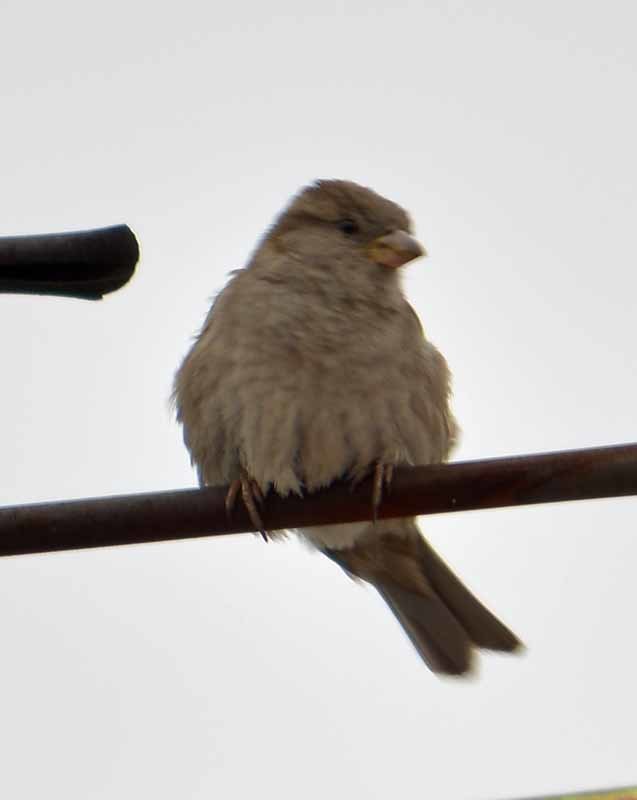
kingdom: Animalia
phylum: Chordata
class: Aves
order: Passeriformes
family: Passeridae
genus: Passer
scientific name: Passer domesticus
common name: House sparrow
